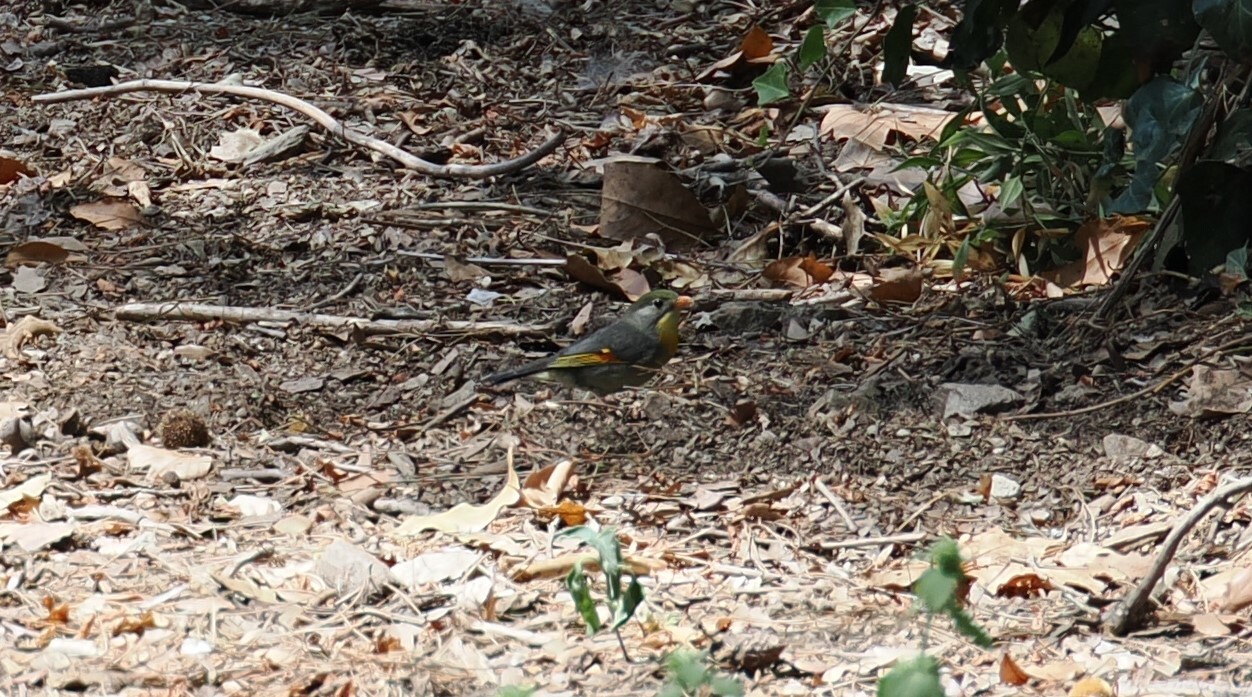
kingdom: Animalia
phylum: Chordata
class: Aves
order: Passeriformes
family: Leiothrichidae
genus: Leiothrix
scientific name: Leiothrix lutea
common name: Red-billed leiothrix
